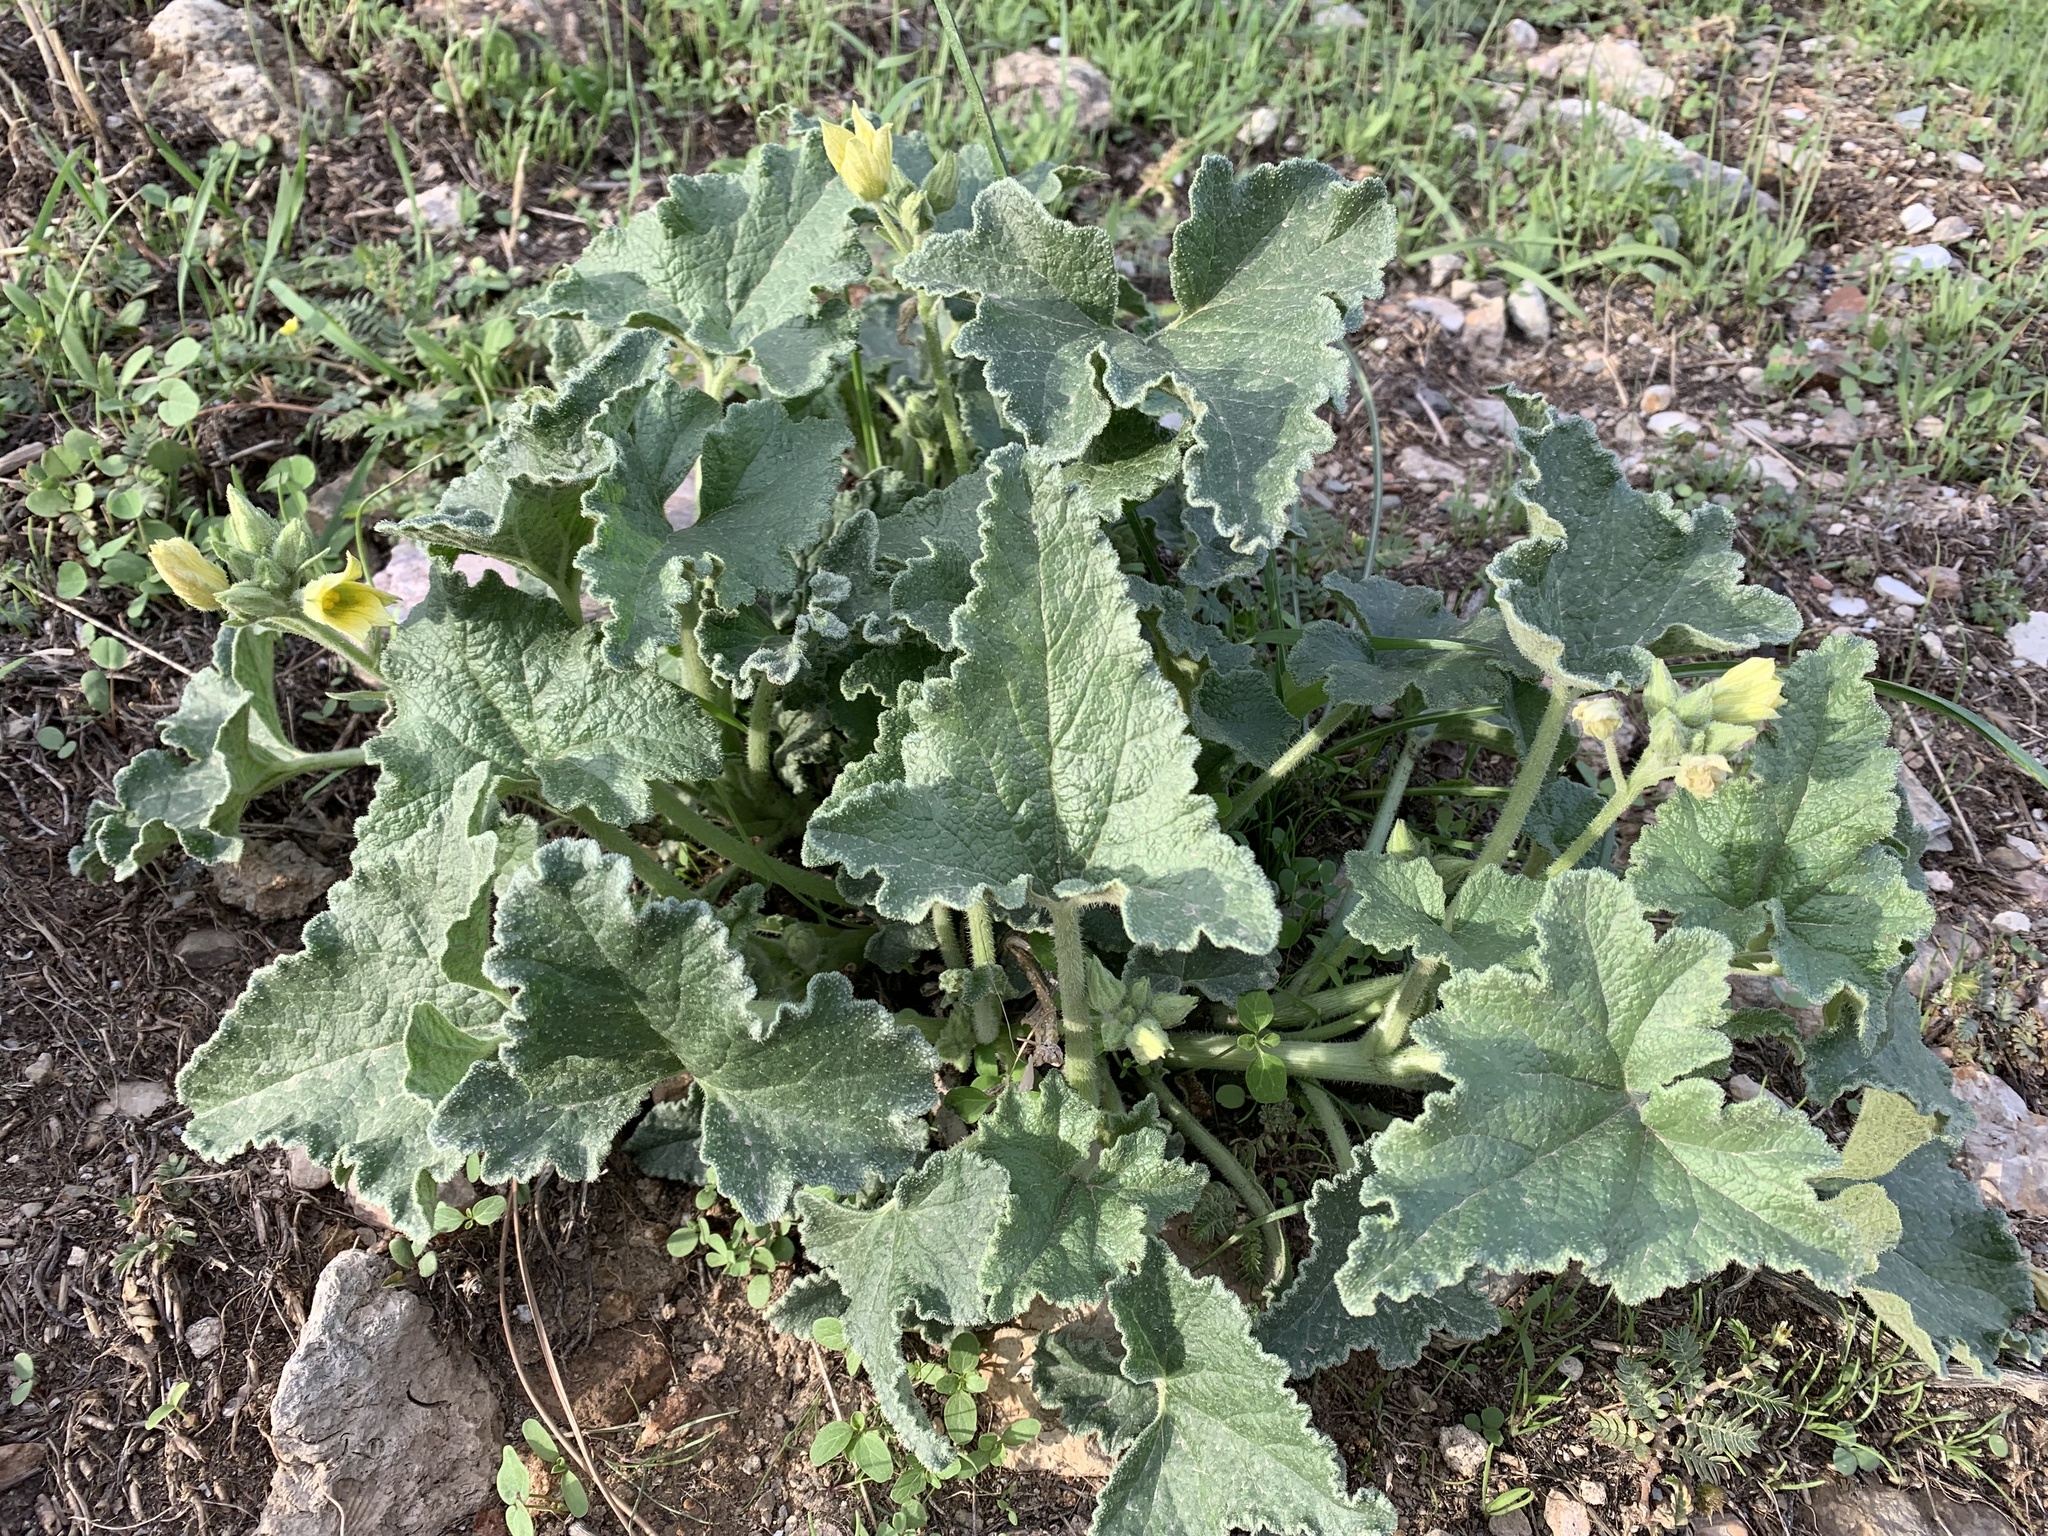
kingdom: Plantae
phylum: Tracheophyta
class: Magnoliopsida
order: Cucurbitales
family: Cucurbitaceae
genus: Ecballium
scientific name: Ecballium elaterium
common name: Squirting cucumber
